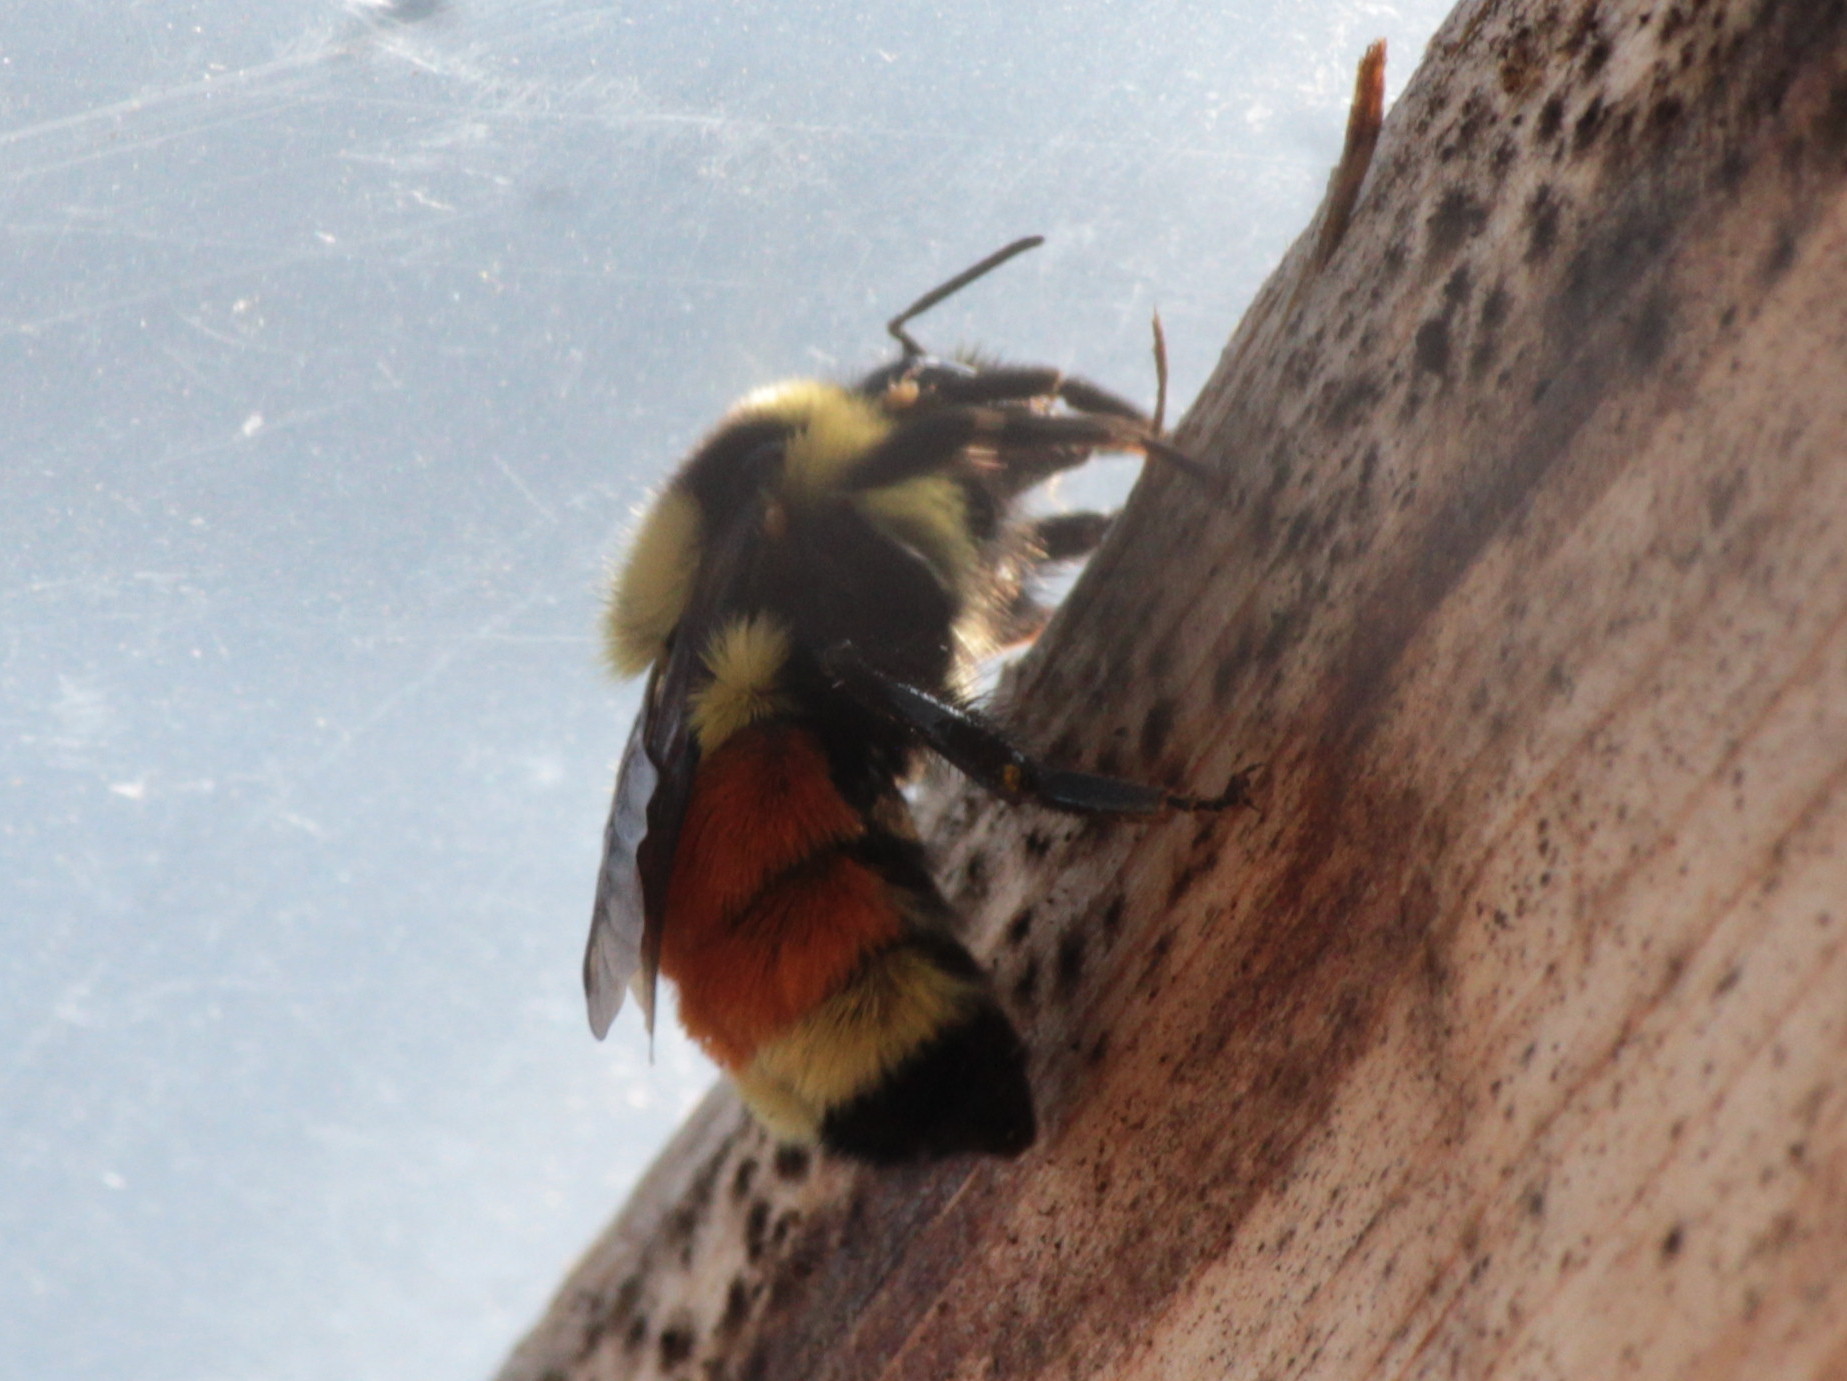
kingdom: Animalia
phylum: Arthropoda
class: Insecta
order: Hymenoptera
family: Apidae
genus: Bombus
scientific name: Bombus ternarius
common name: Tri-colored bumble bee
